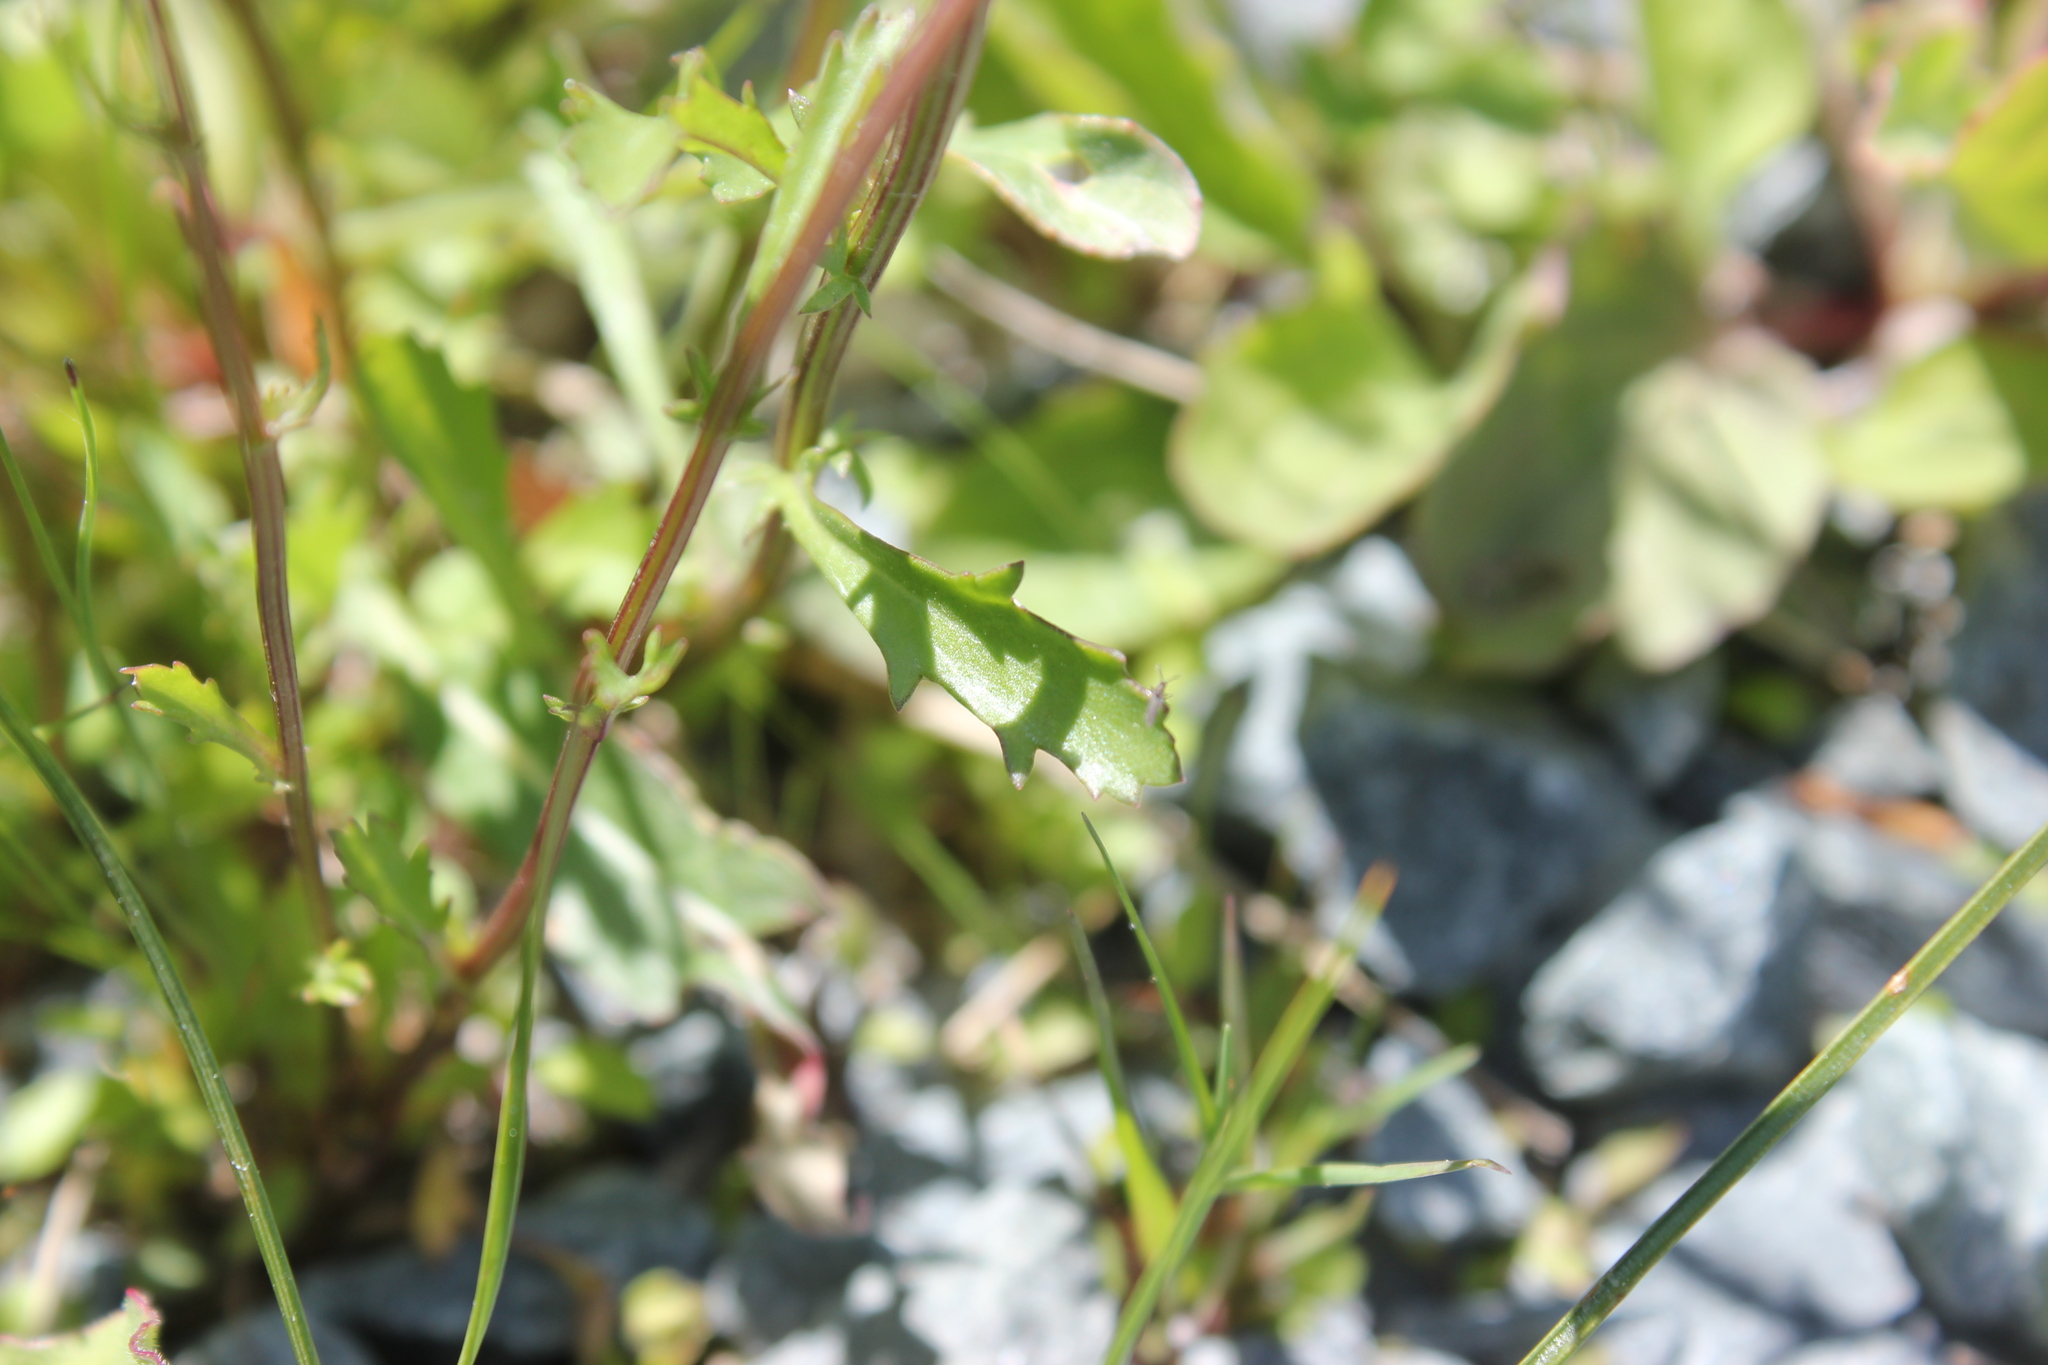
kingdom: Plantae
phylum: Tracheophyta
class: Magnoliopsida
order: Asterales
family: Asteraceae
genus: Leucanthemum
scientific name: Leucanthemum vulgare
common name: Oxeye daisy
